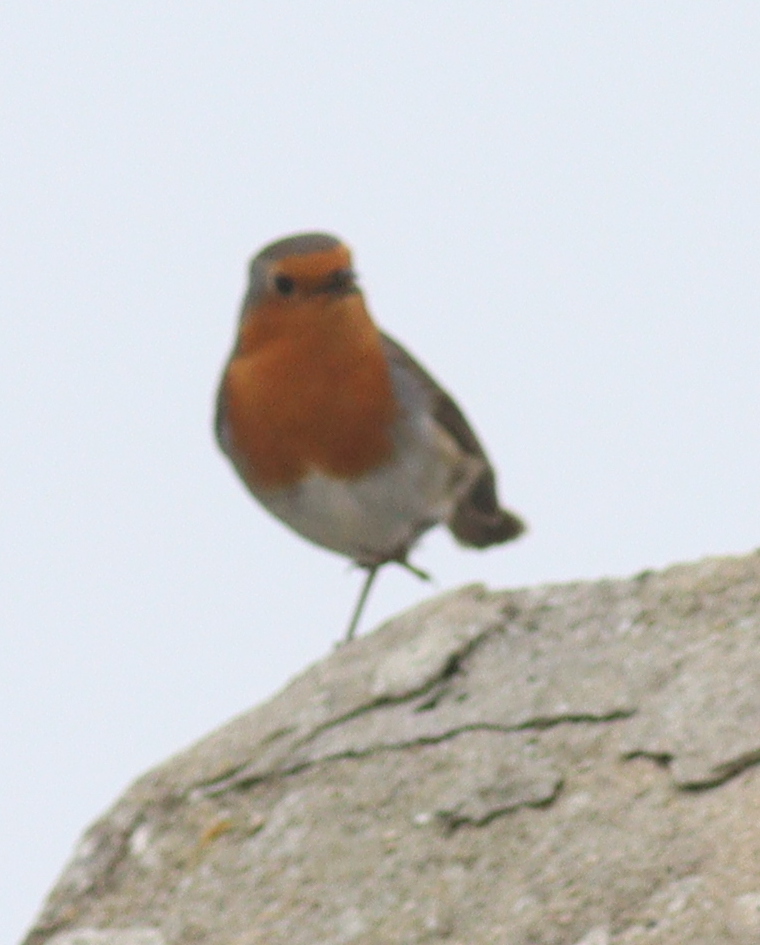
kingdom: Animalia
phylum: Chordata
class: Aves
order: Passeriformes
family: Muscicapidae
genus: Erithacus
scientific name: Erithacus rubecula
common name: European robin
